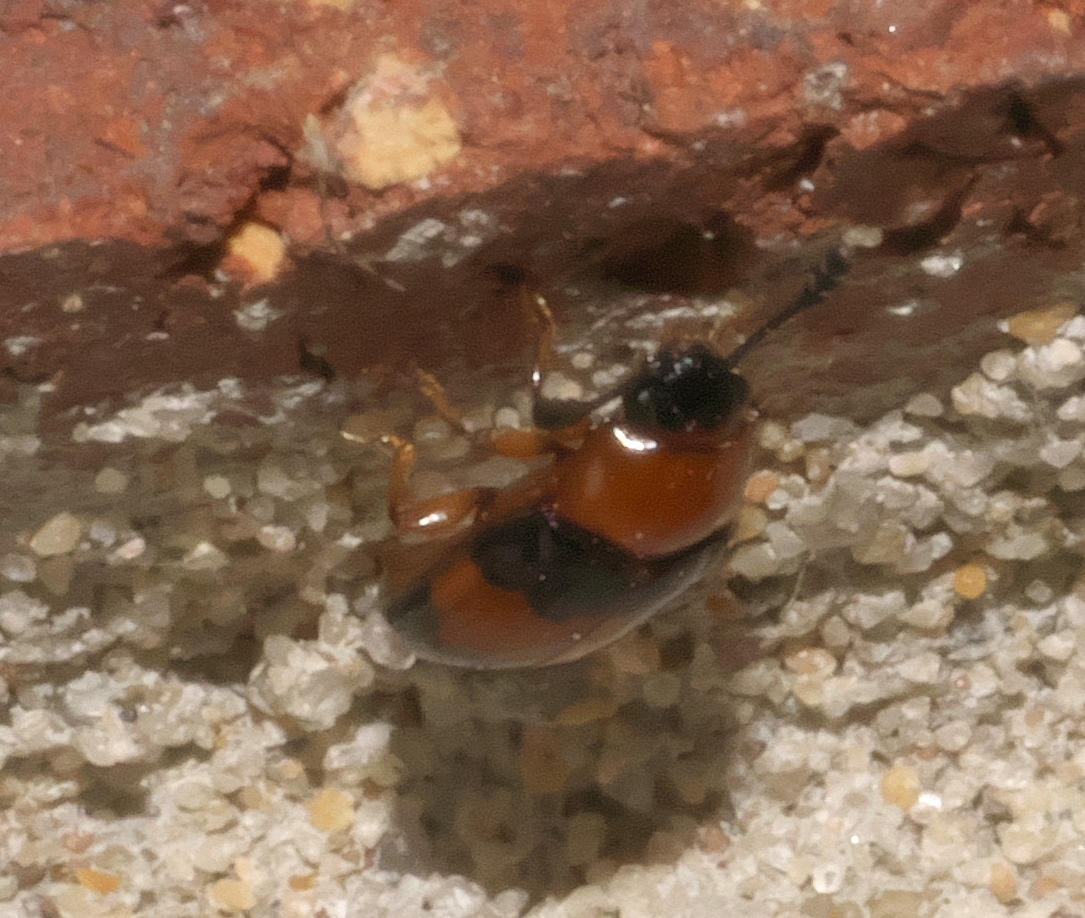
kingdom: Animalia
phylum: Arthropoda
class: Insecta
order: Coleoptera
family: Erotylidae
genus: Triplax
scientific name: Triplax festiva
